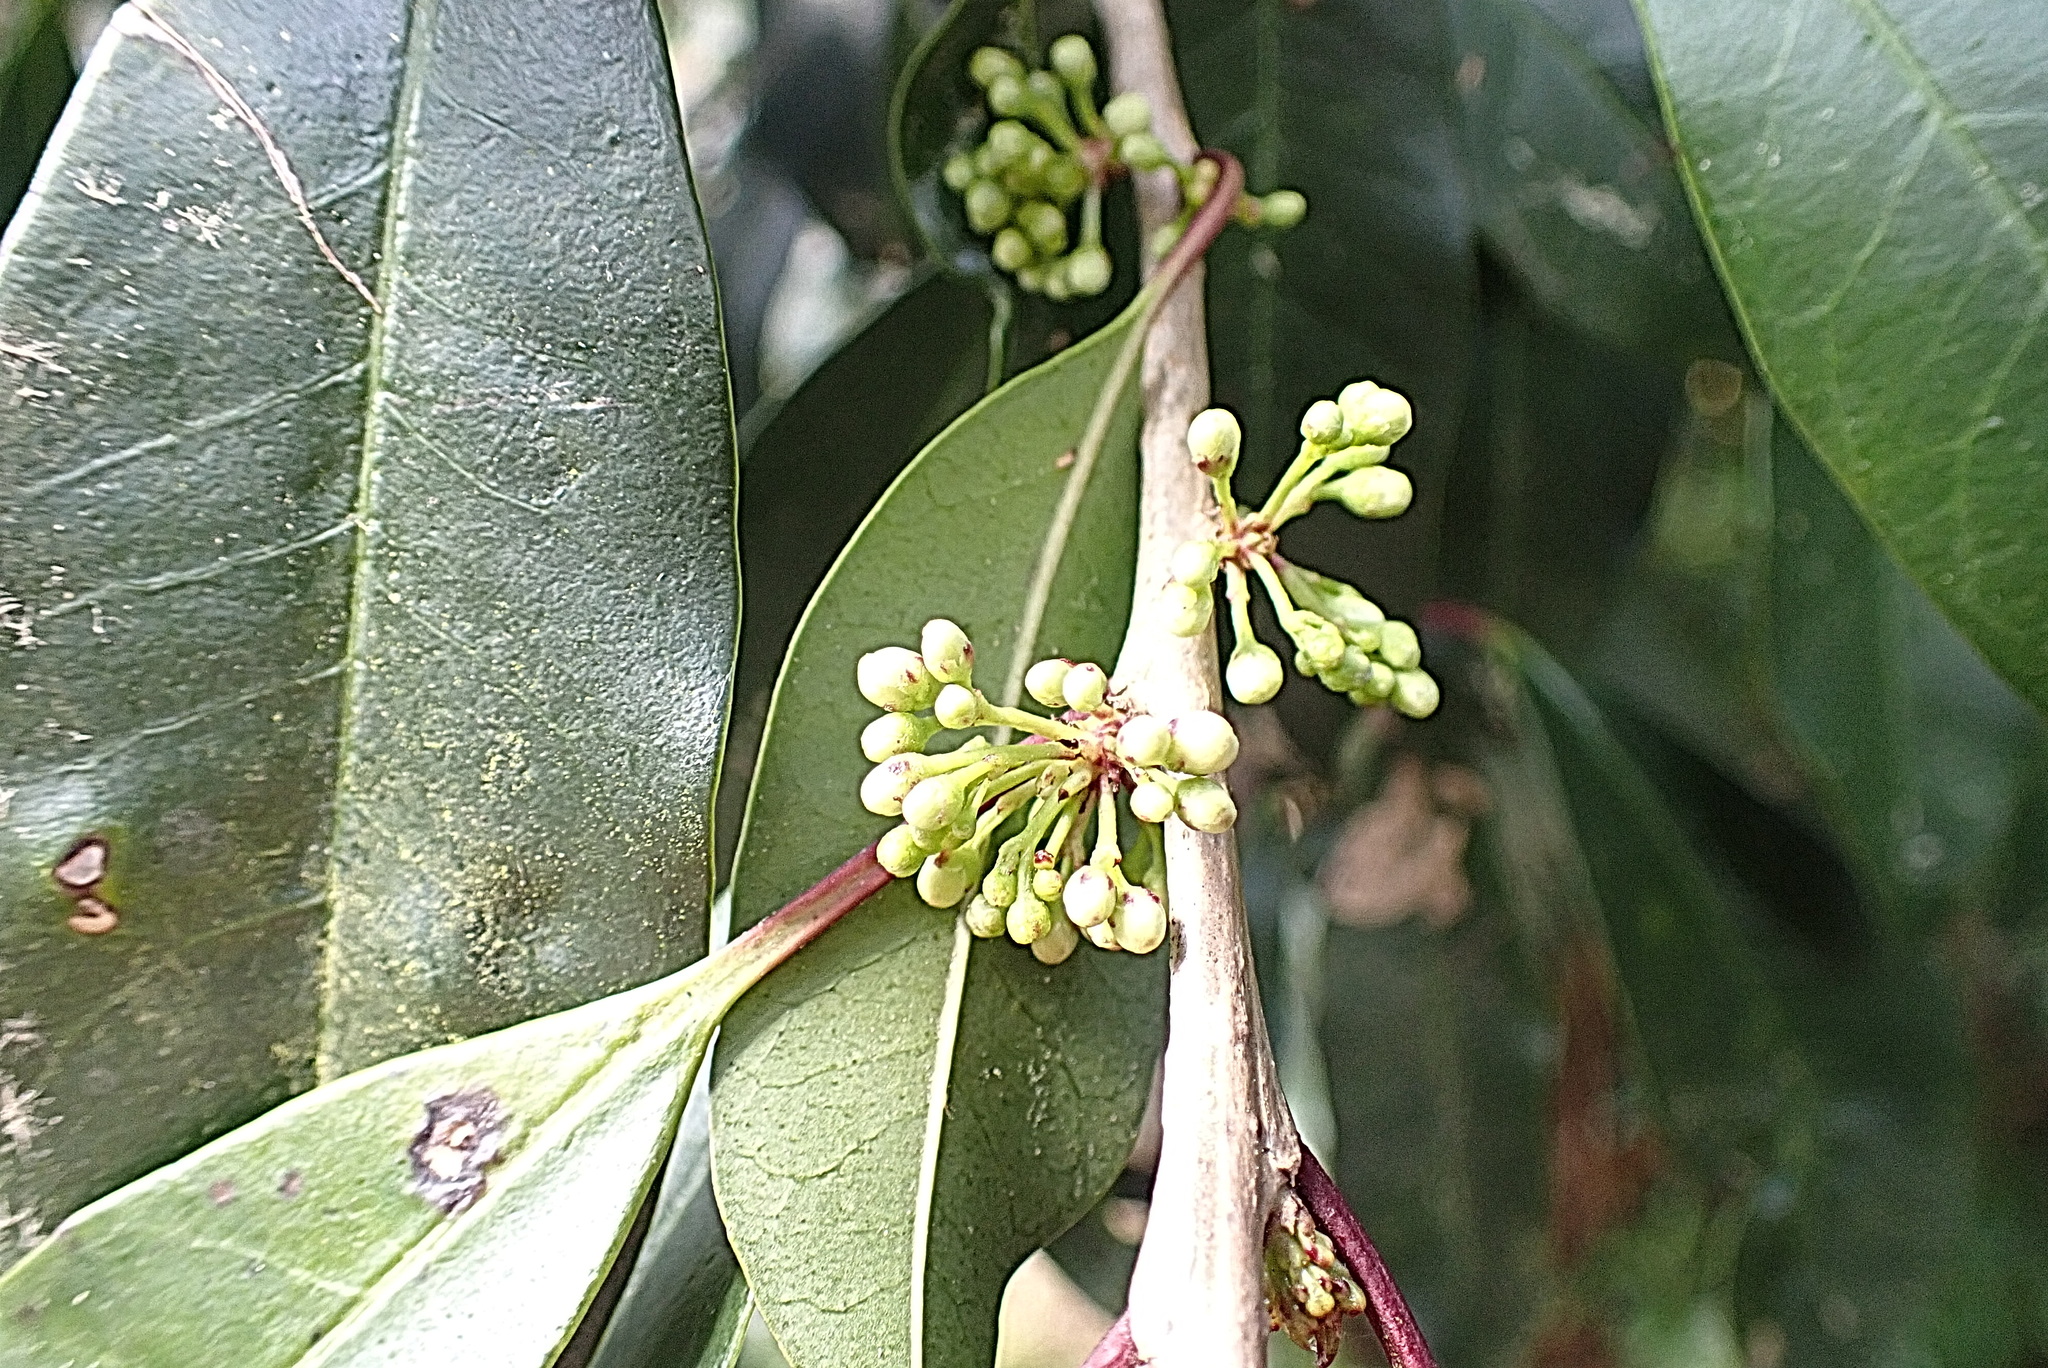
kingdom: Plantae
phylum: Tracheophyta
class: Magnoliopsida
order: Aquifoliales
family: Aquifoliaceae
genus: Ilex
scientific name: Ilex mitis
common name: African holly
